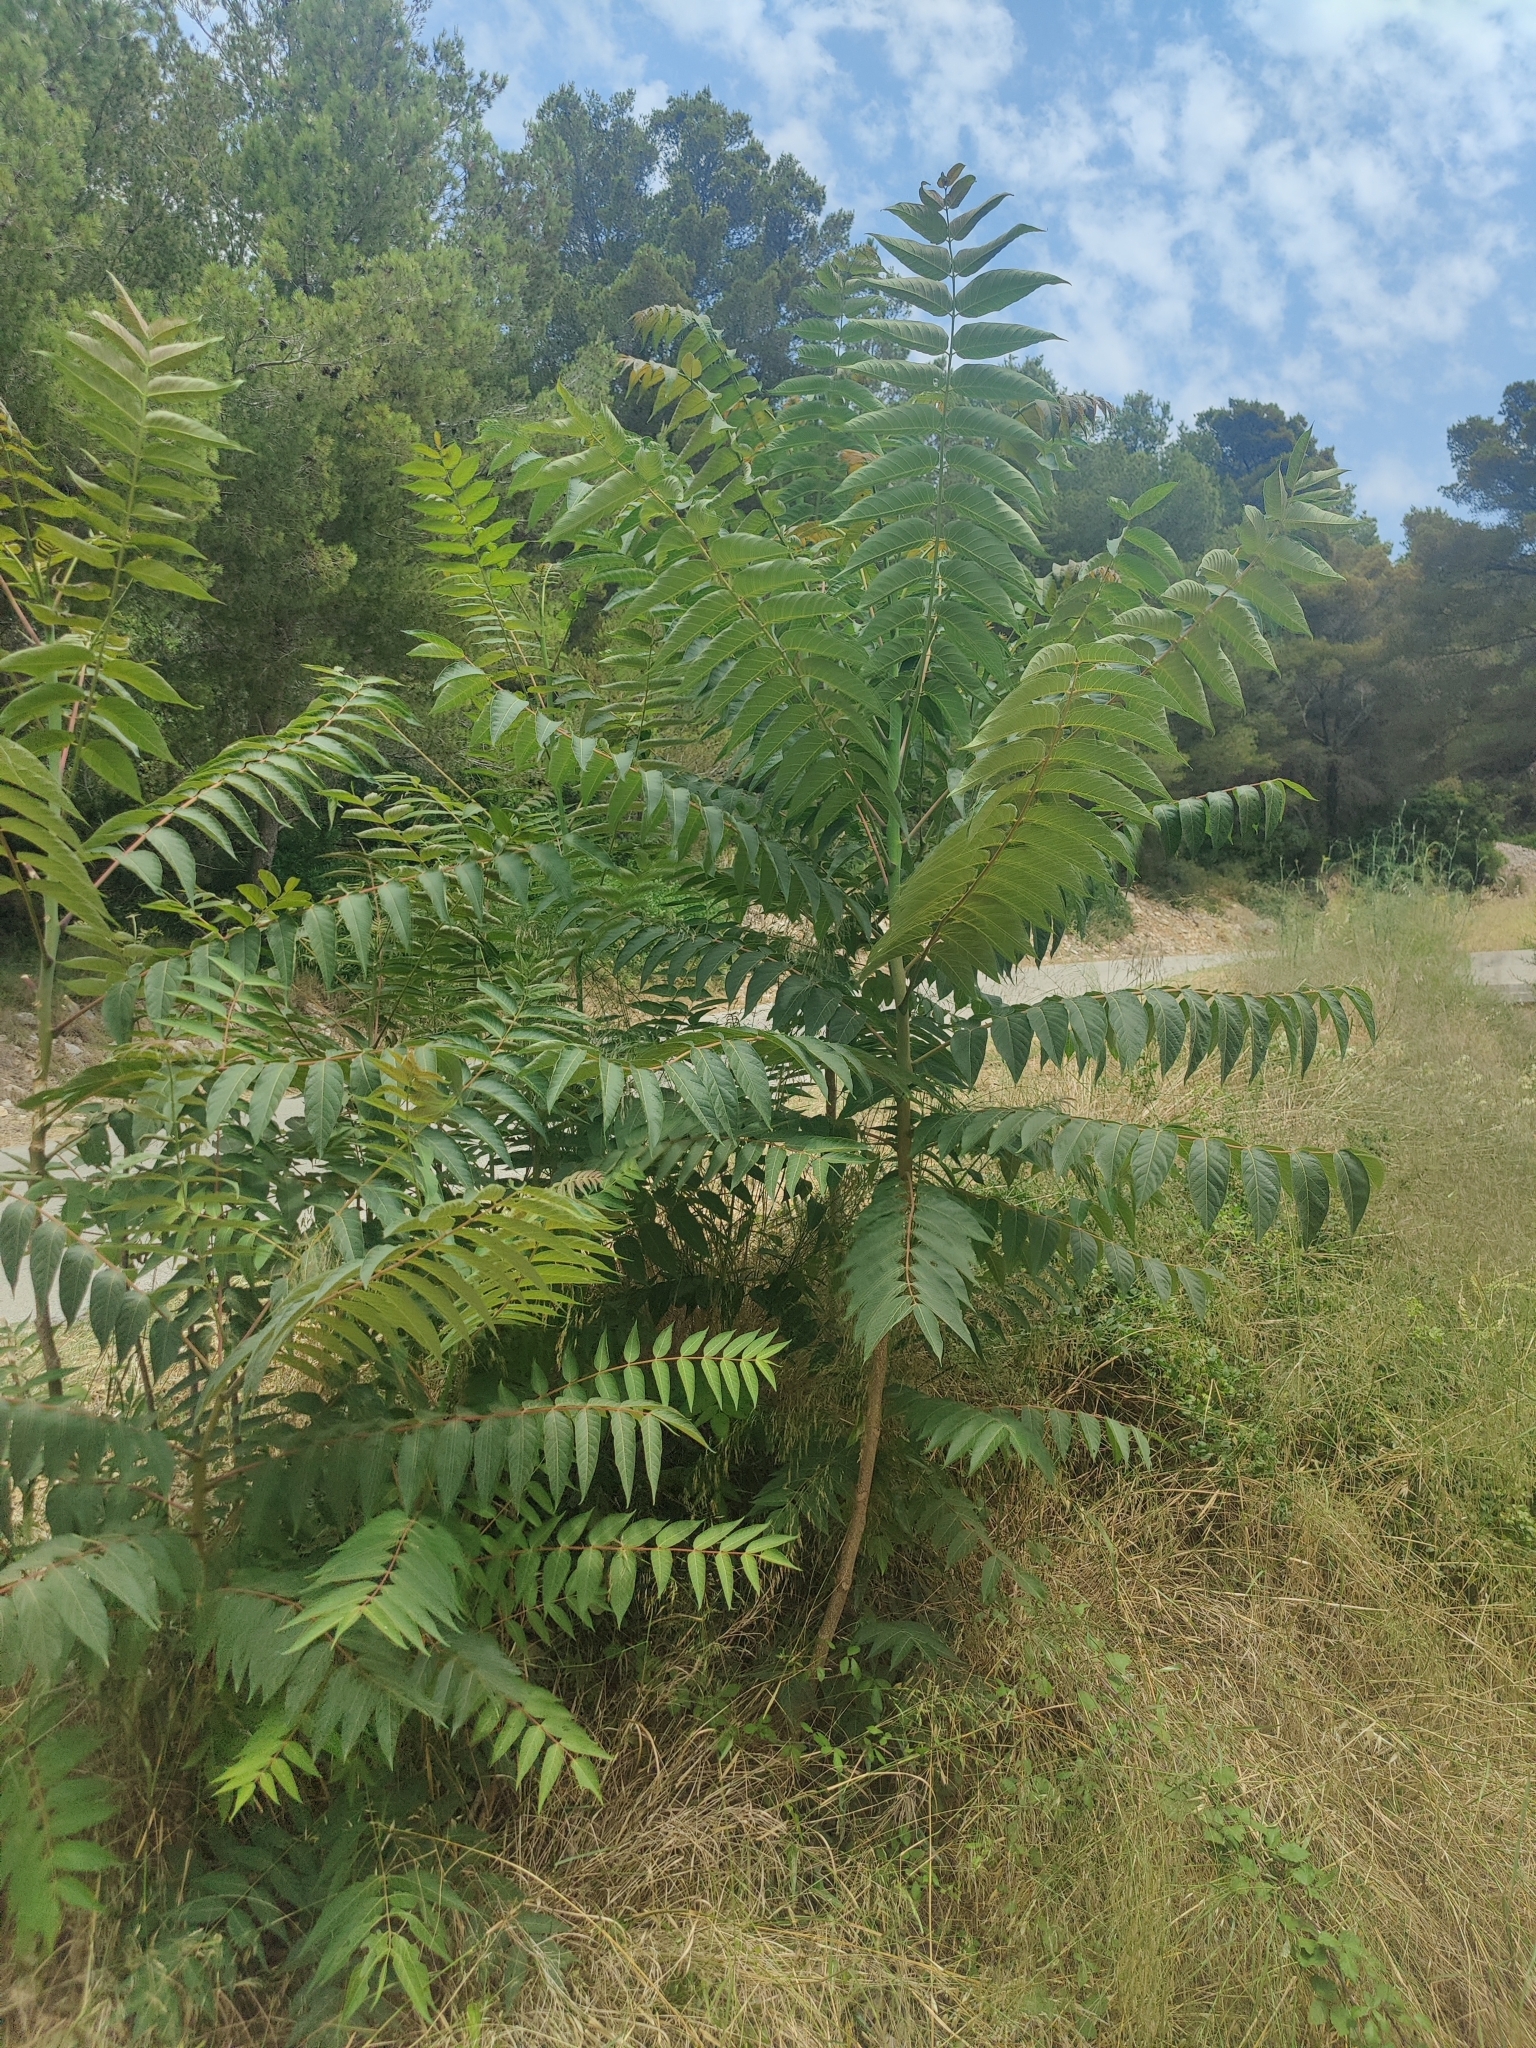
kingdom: Plantae
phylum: Tracheophyta
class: Magnoliopsida
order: Sapindales
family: Simaroubaceae
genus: Ailanthus
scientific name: Ailanthus altissima
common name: Tree-of-heaven
